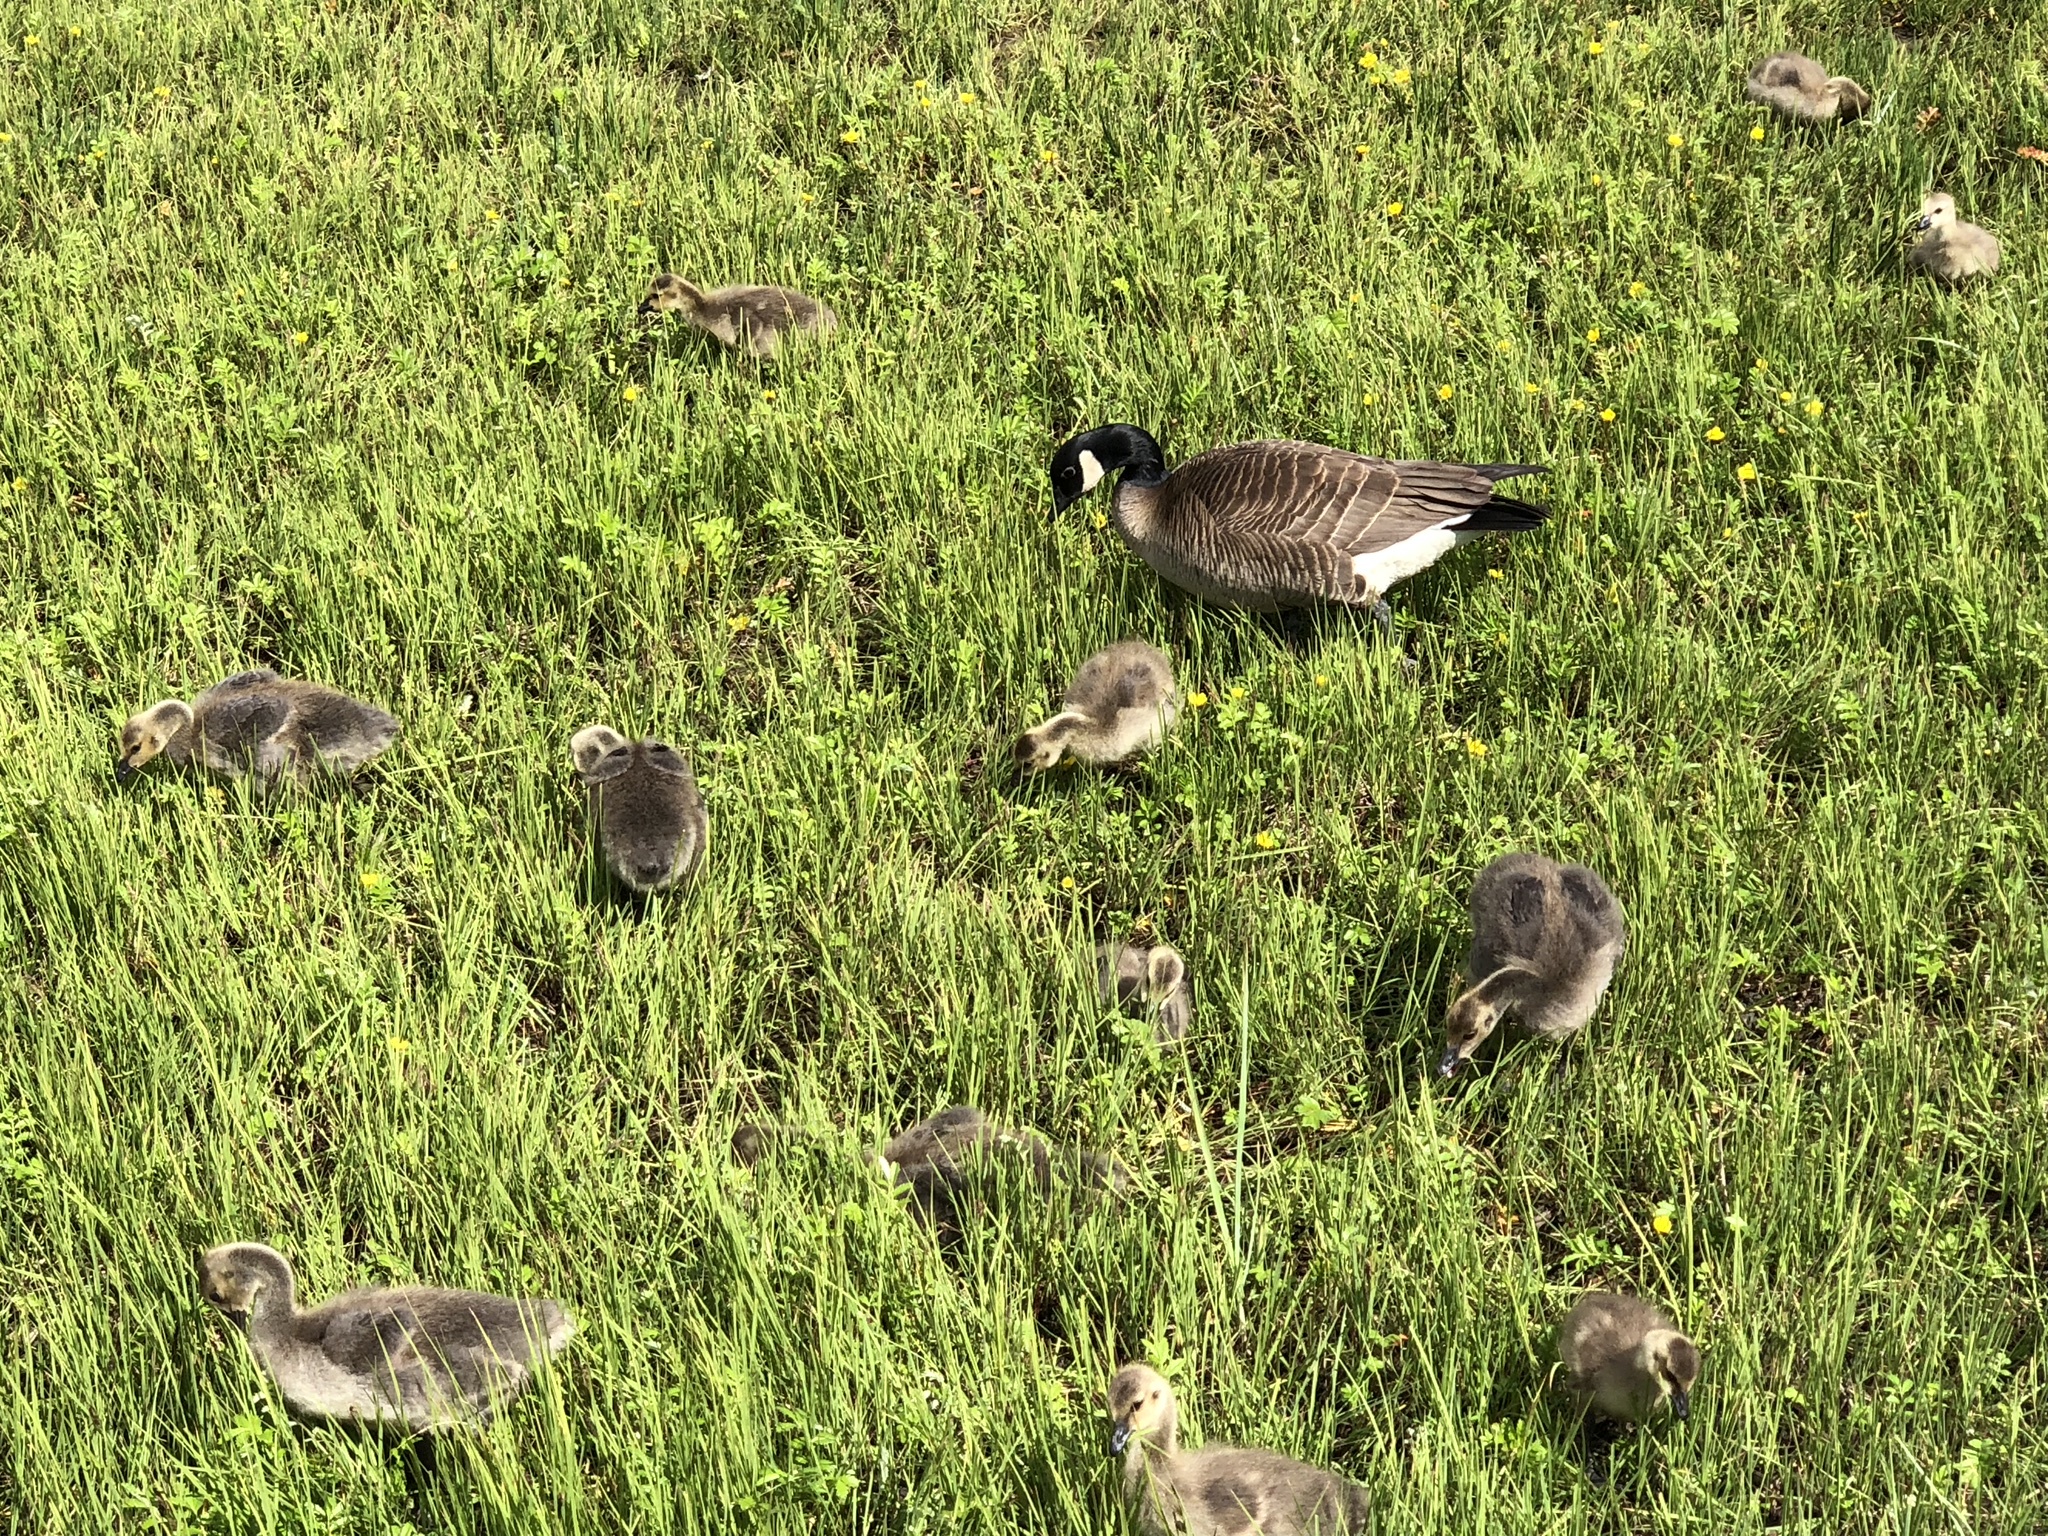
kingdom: Animalia
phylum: Chordata
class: Aves
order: Anseriformes
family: Anatidae
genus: Branta
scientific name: Branta canadensis
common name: Canada goose
